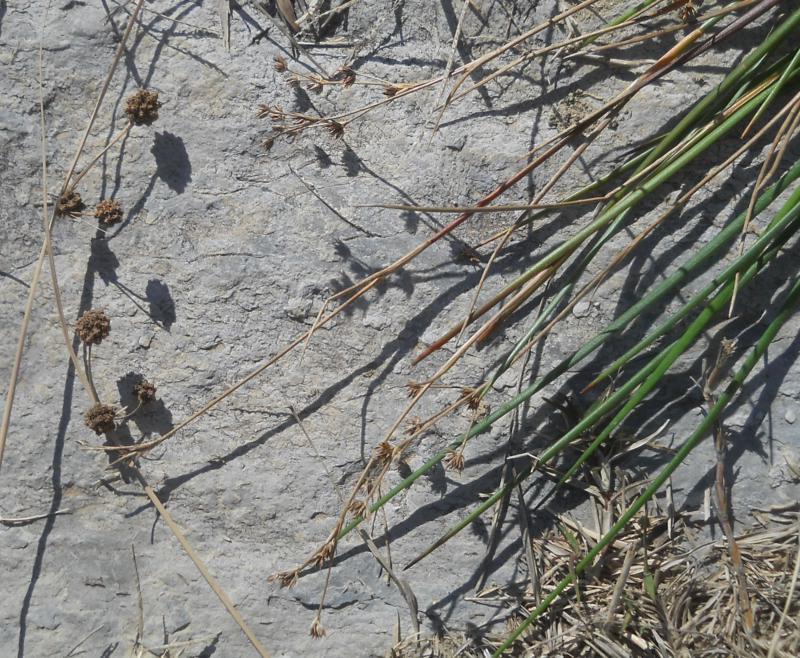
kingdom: Plantae
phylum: Tracheophyta
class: Liliopsida
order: Poales
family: Cyperaceae
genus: Scirpoides
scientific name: Scirpoides holoschoenus
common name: Round-headed club-rush
